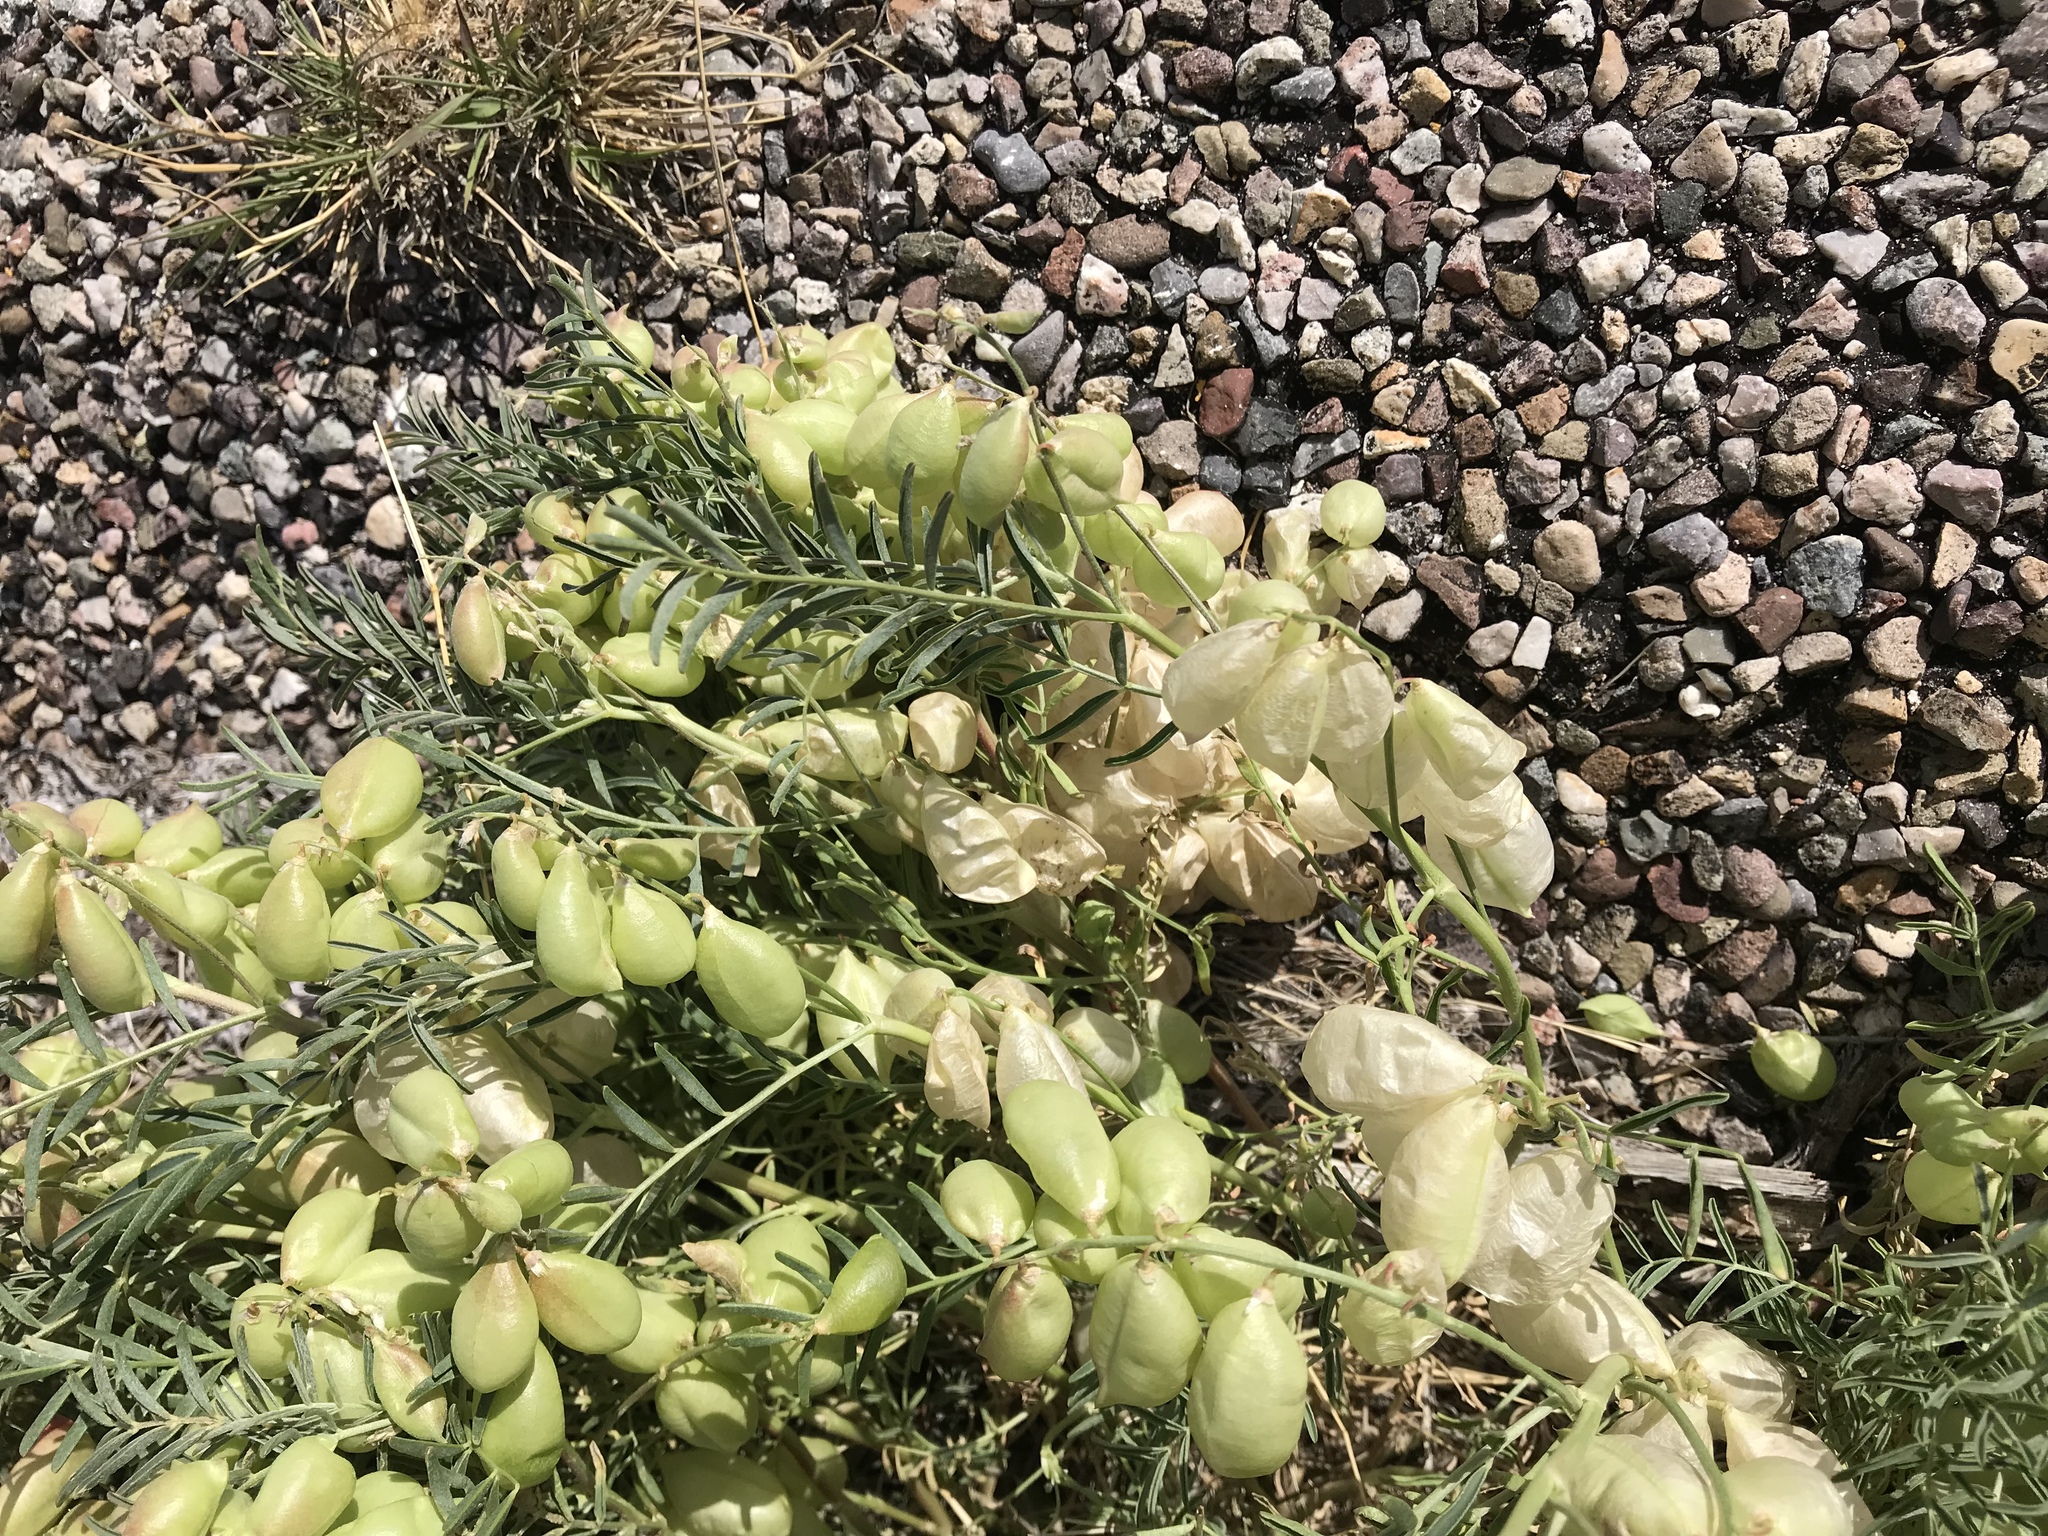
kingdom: Plantae
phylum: Tracheophyta
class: Magnoliopsida
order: Fabales
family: Fabaceae
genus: Astragalus
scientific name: Astragalus allochrous
